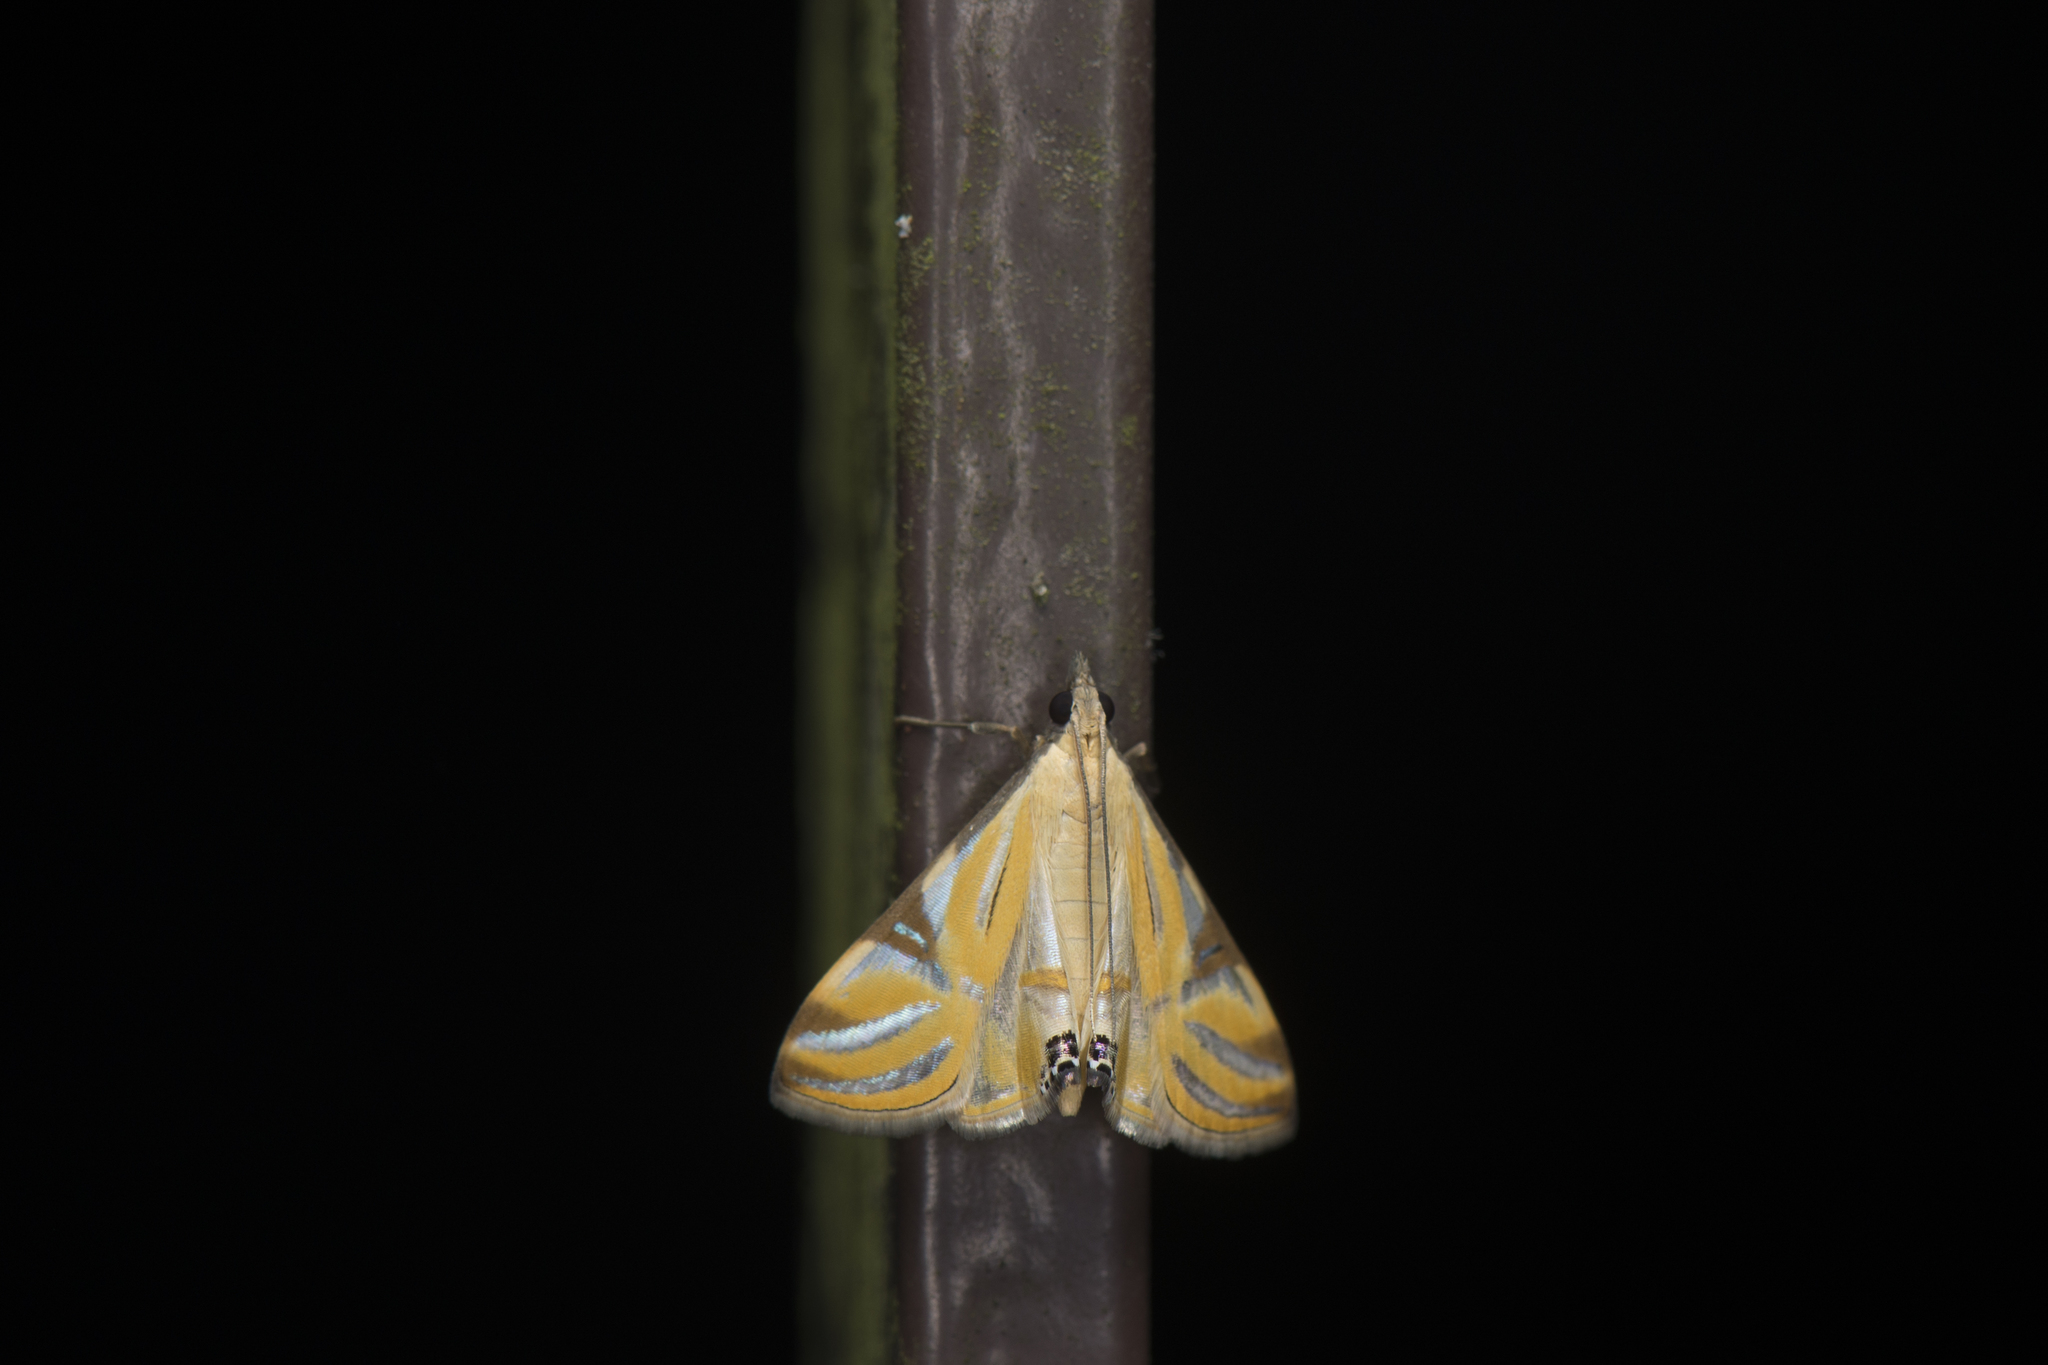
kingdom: Animalia
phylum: Arthropoda
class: Insecta
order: Lepidoptera
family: Crambidae
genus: Talanga
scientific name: Talanga sexpunctalis
